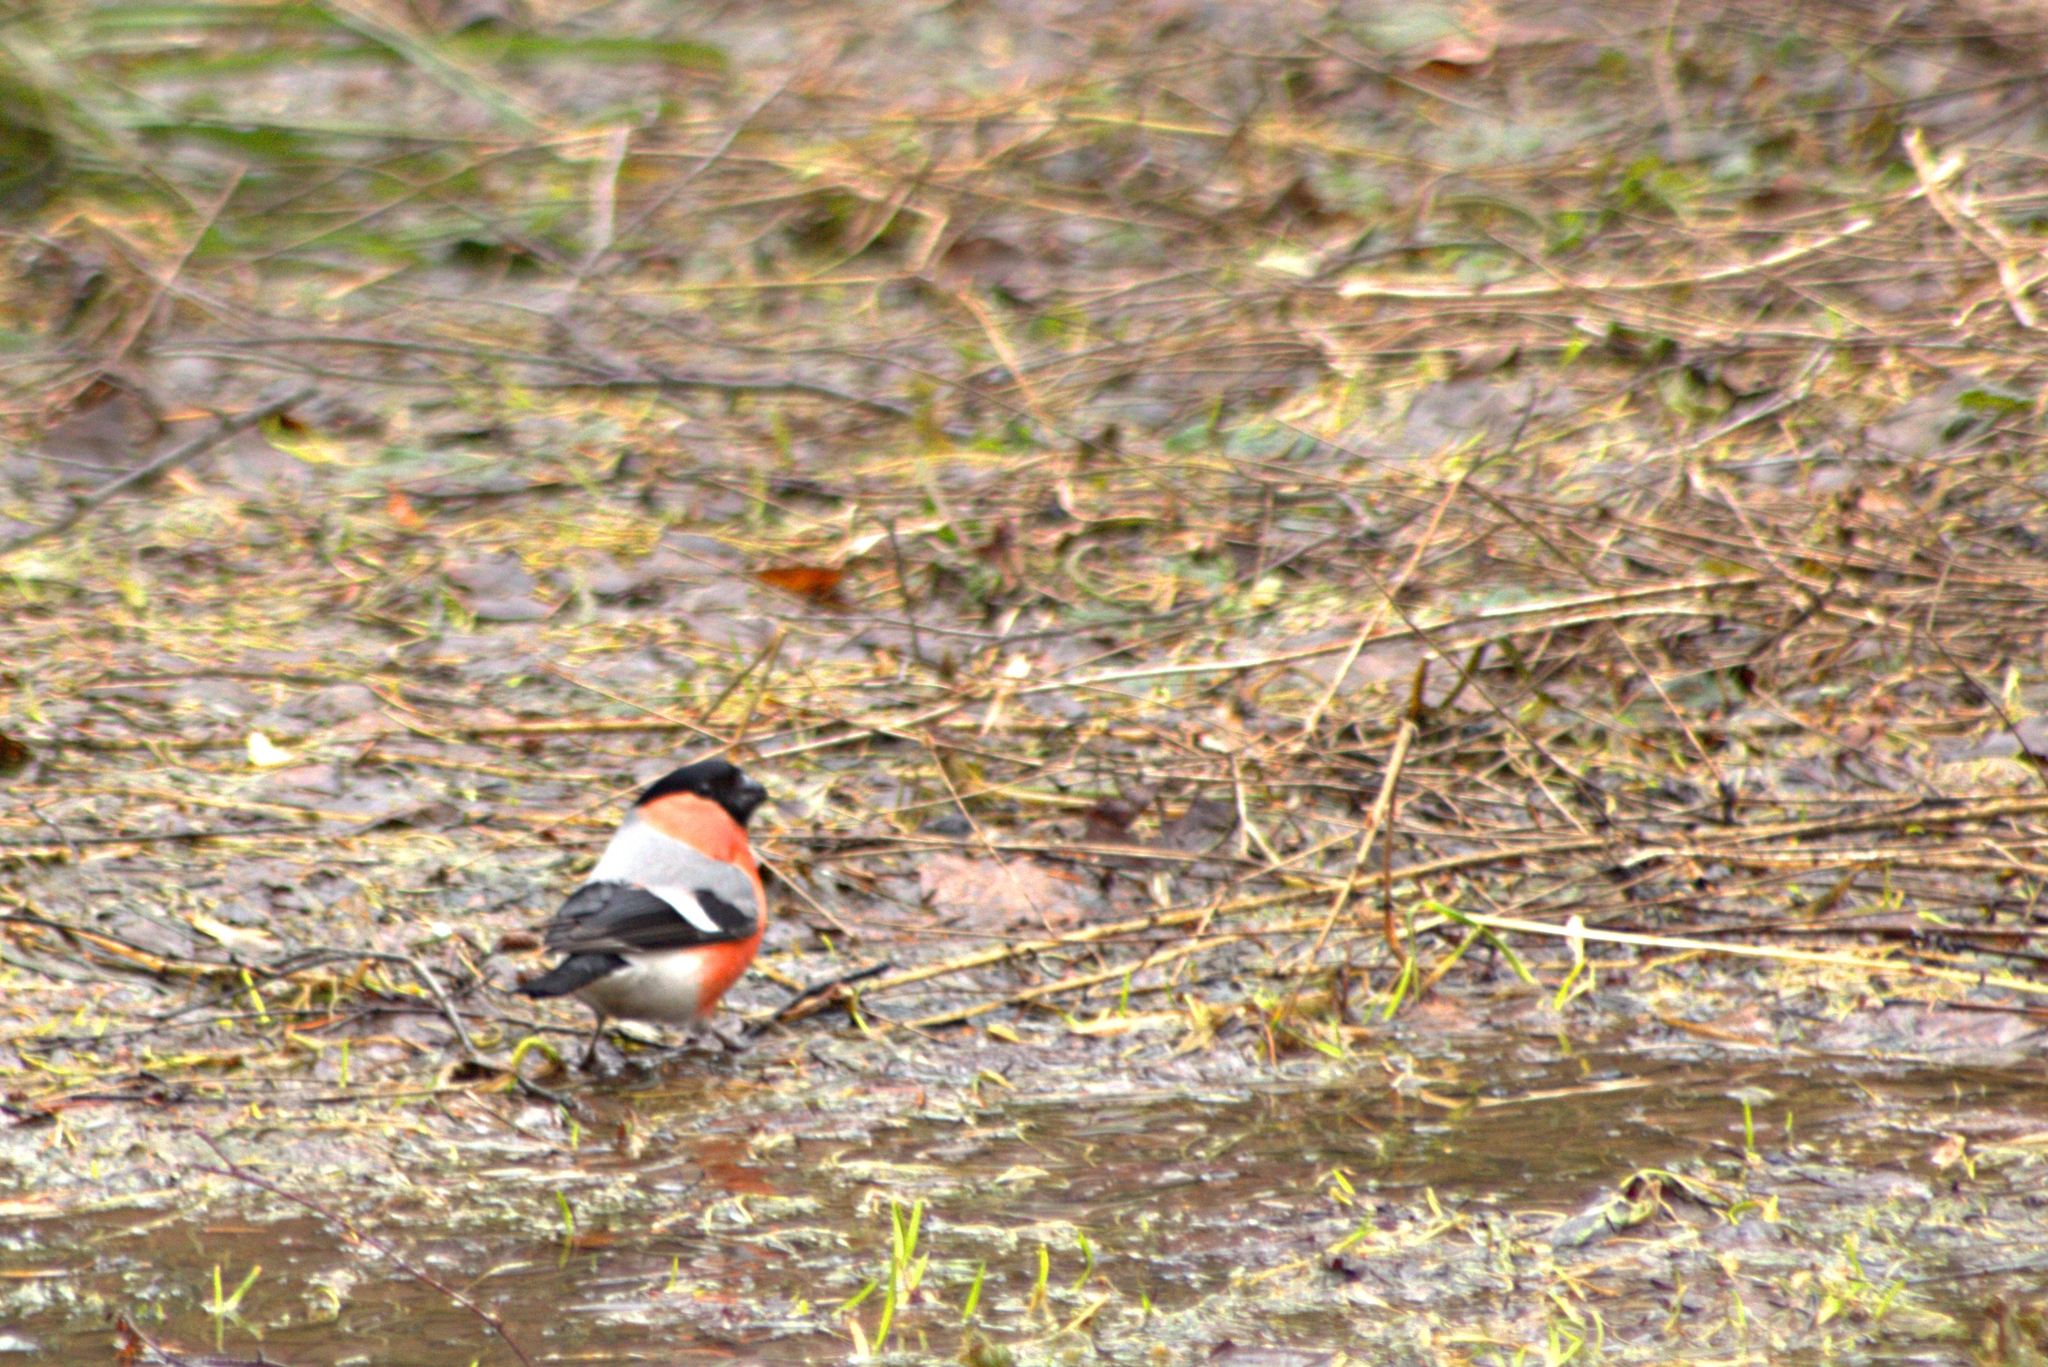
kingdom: Animalia
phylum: Chordata
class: Aves
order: Passeriformes
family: Fringillidae
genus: Pyrrhula
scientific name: Pyrrhula pyrrhula
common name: Eurasian bullfinch
